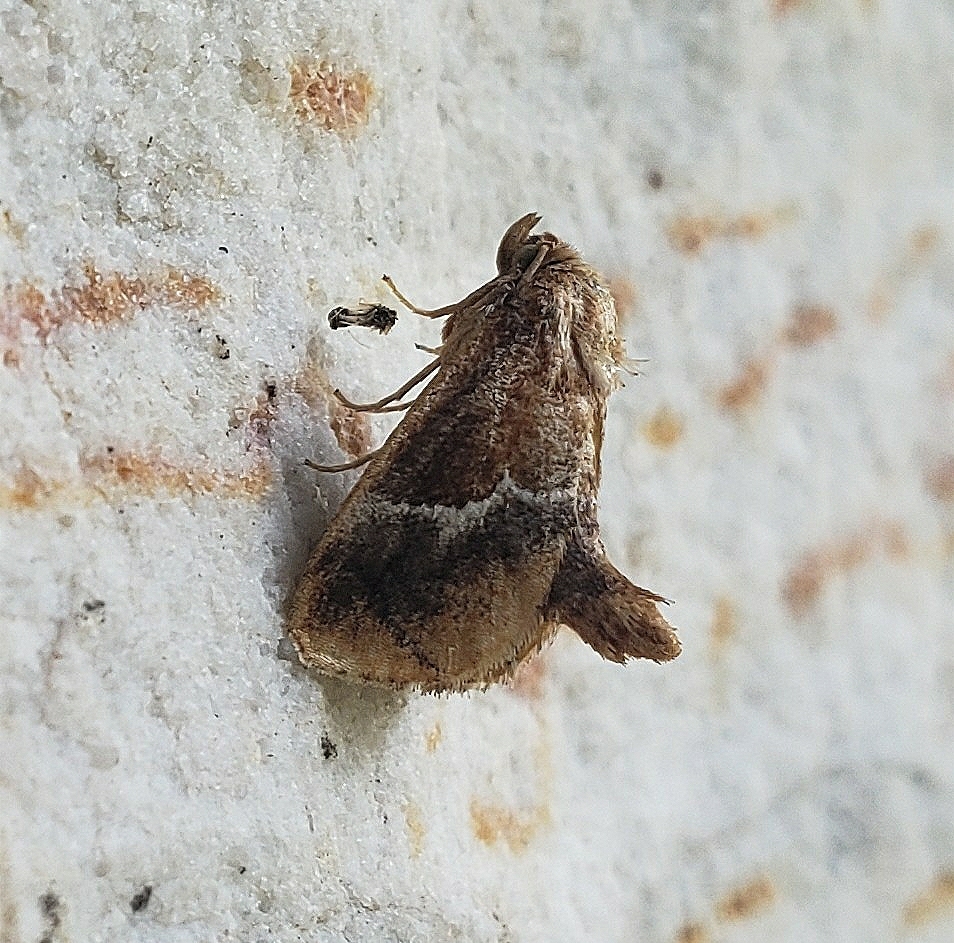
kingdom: Animalia
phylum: Arthropoda
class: Insecta
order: Lepidoptera
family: Limacodidae
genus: Lithacodes
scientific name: Lithacodes fasciola
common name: Yellow-shouldered slug moth
